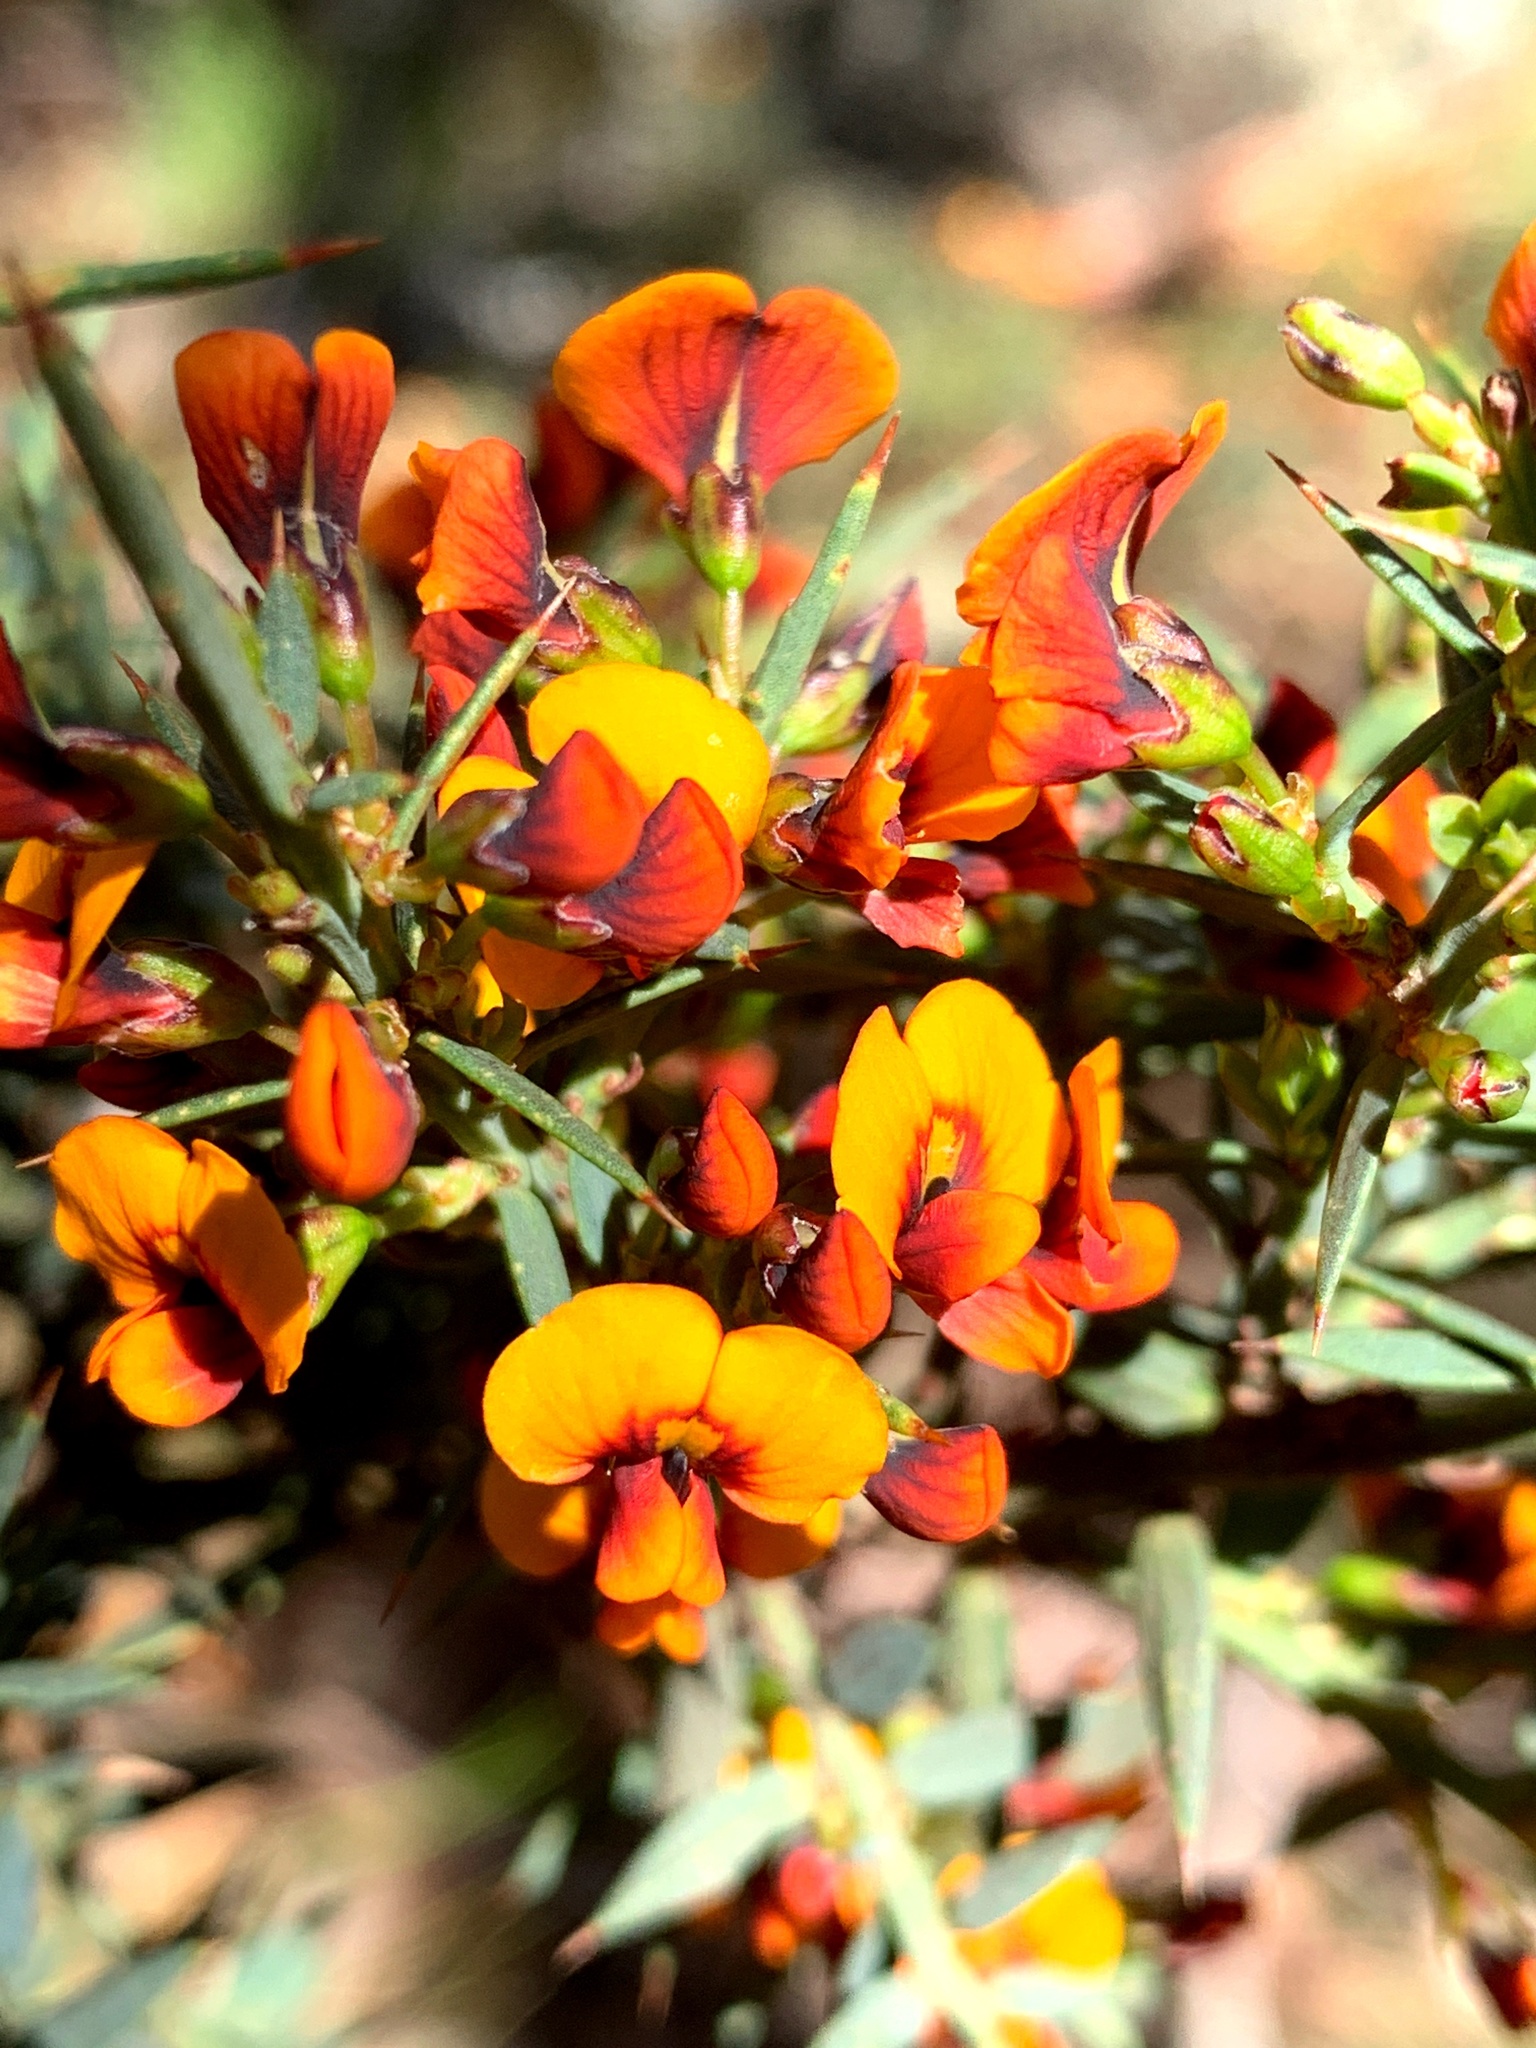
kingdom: Plantae
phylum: Tracheophyta
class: Magnoliopsida
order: Fabales
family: Fabaceae
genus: Daviesia
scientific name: Daviesia ulicifolia
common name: Gorse bitter-pea
